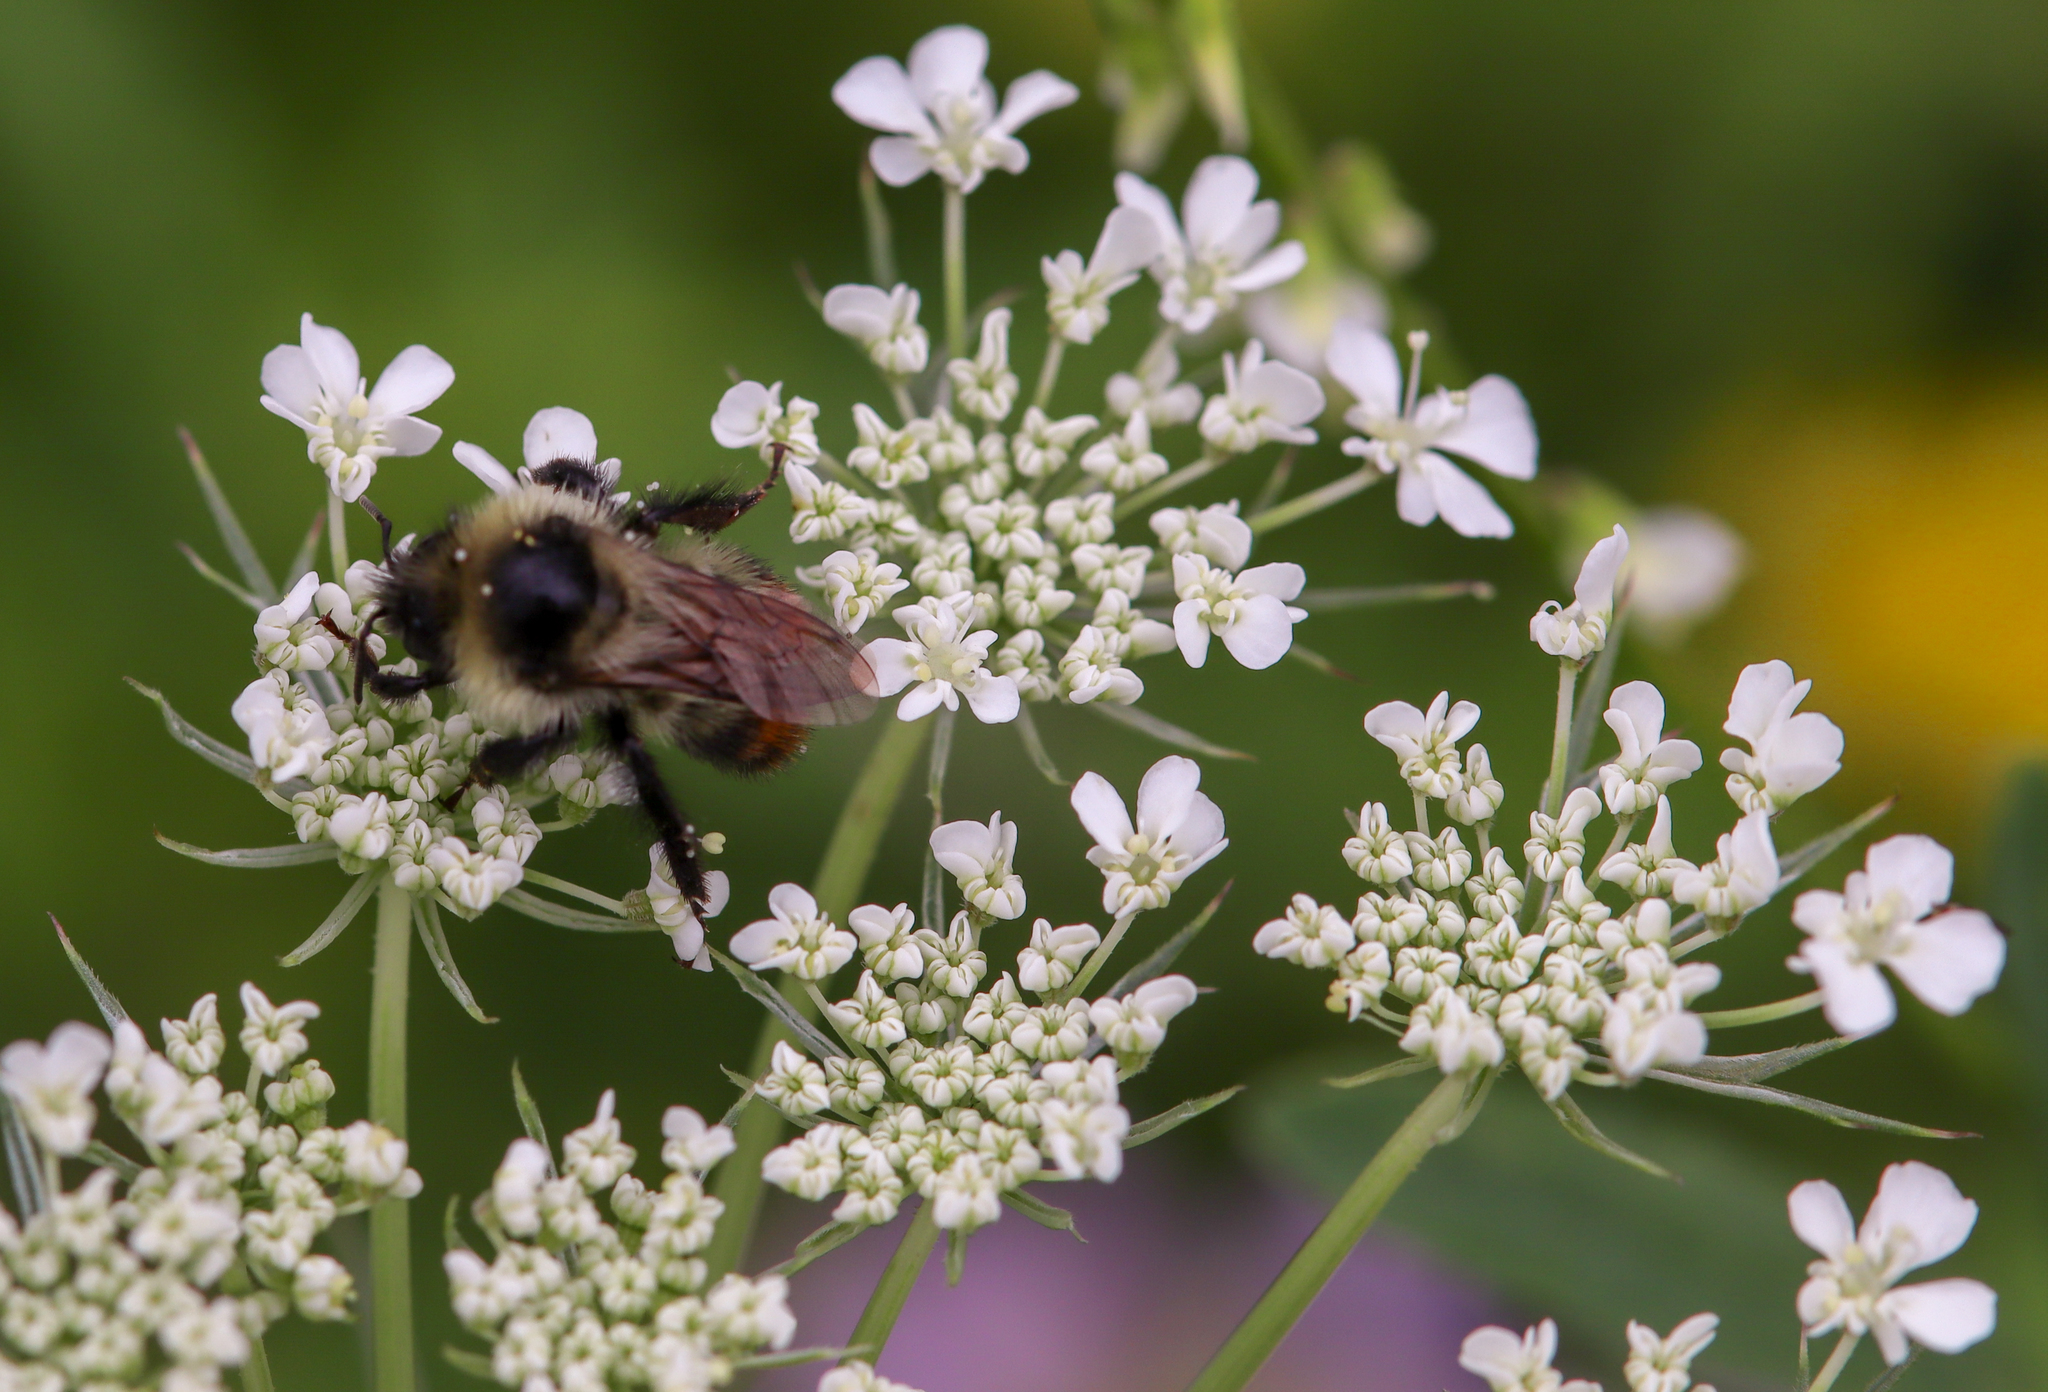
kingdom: Animalia
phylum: Arthropoda
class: Insecta
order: Hymenoptera
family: Apidae
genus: Bombus
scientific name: Bombus rufocinctus
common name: Red-belted bumble bee
